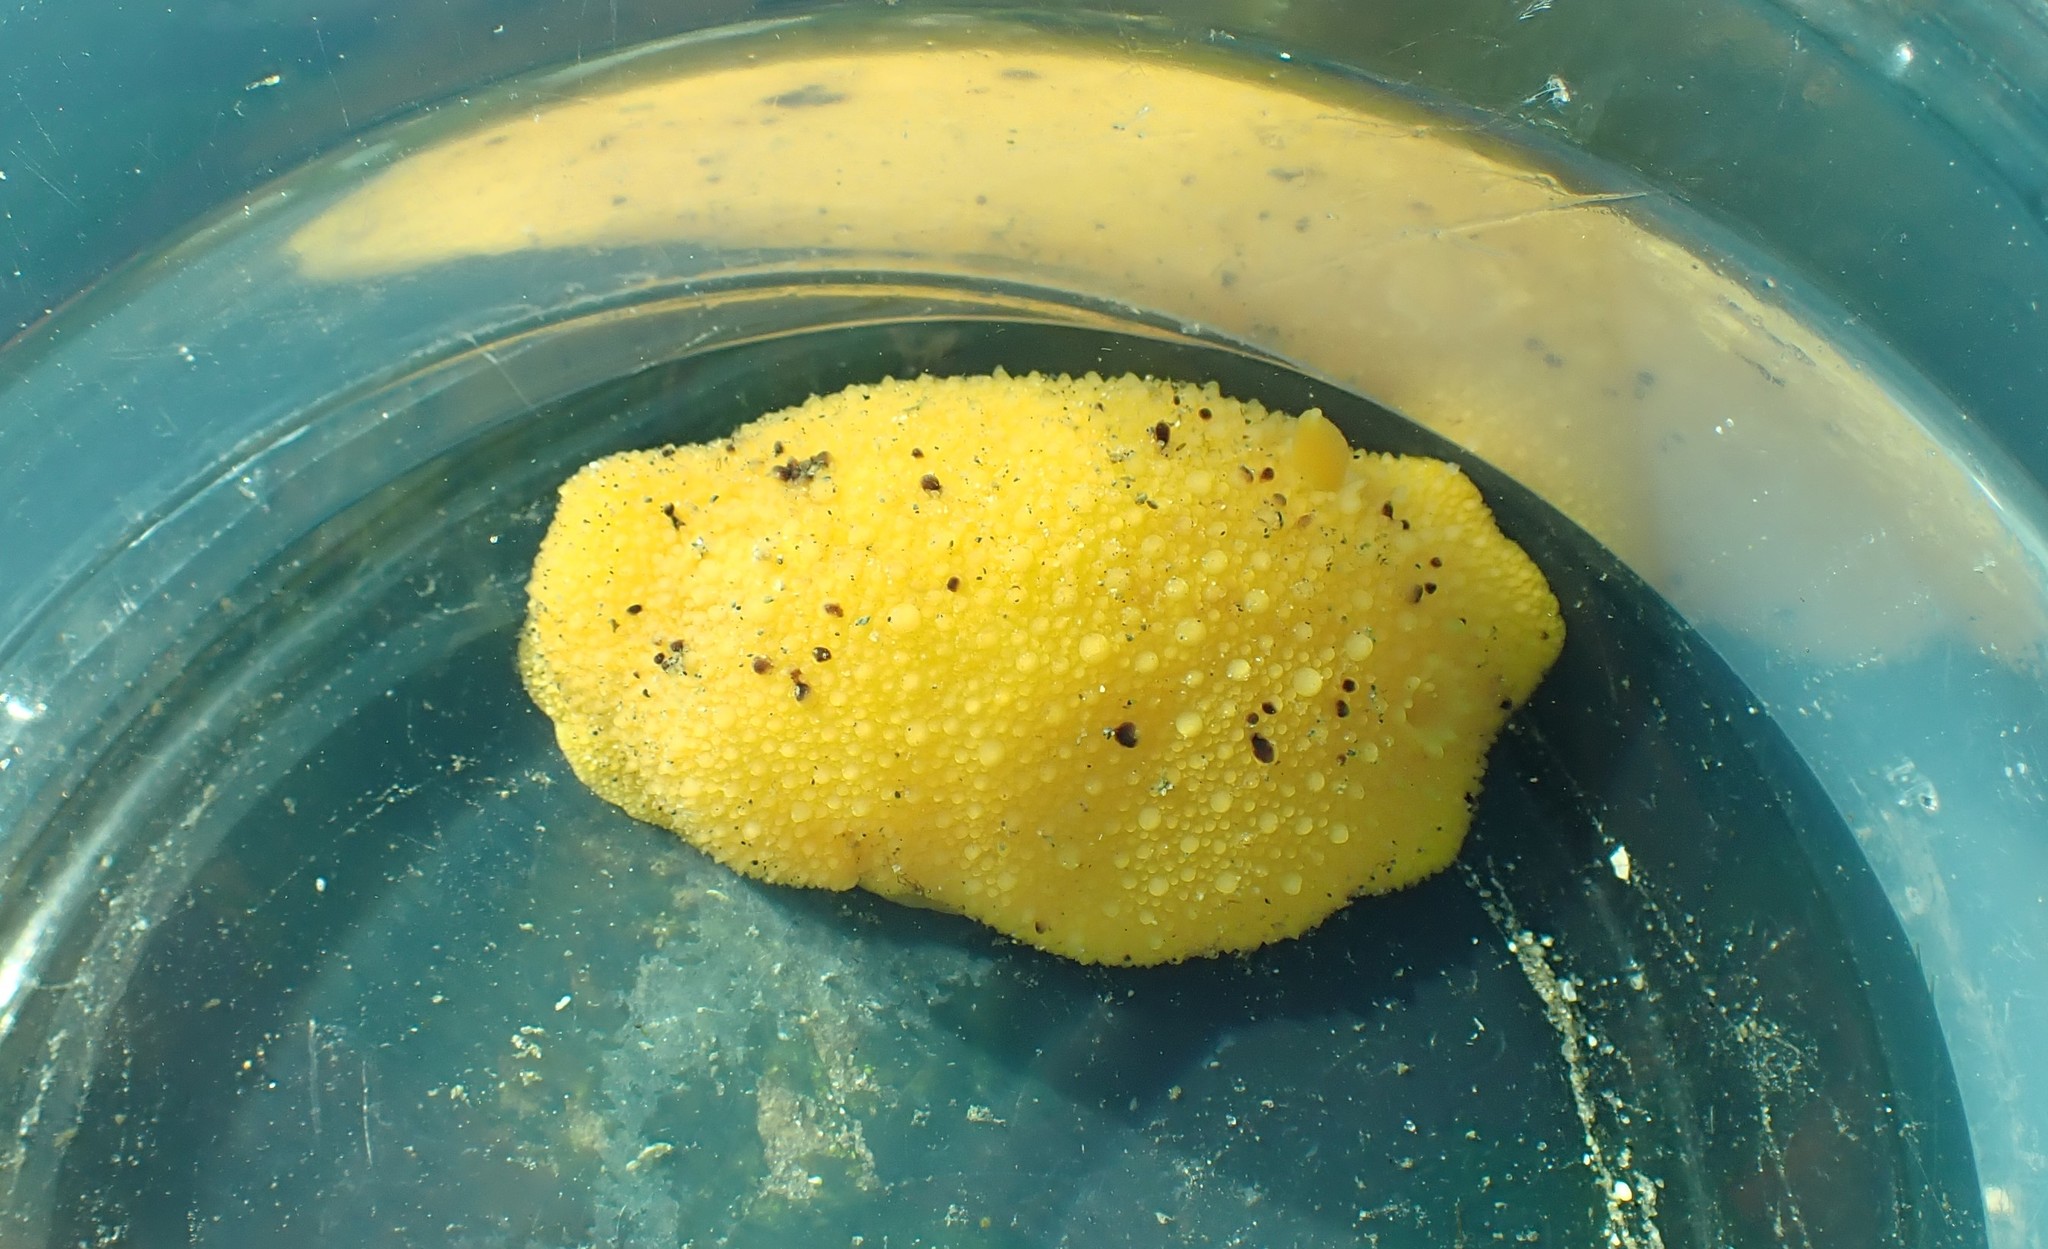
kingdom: Animalia
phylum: Mollusca
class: Gastropoda
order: Nudibranchia
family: Dorididae
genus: Doris
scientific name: Doris montereyensis
